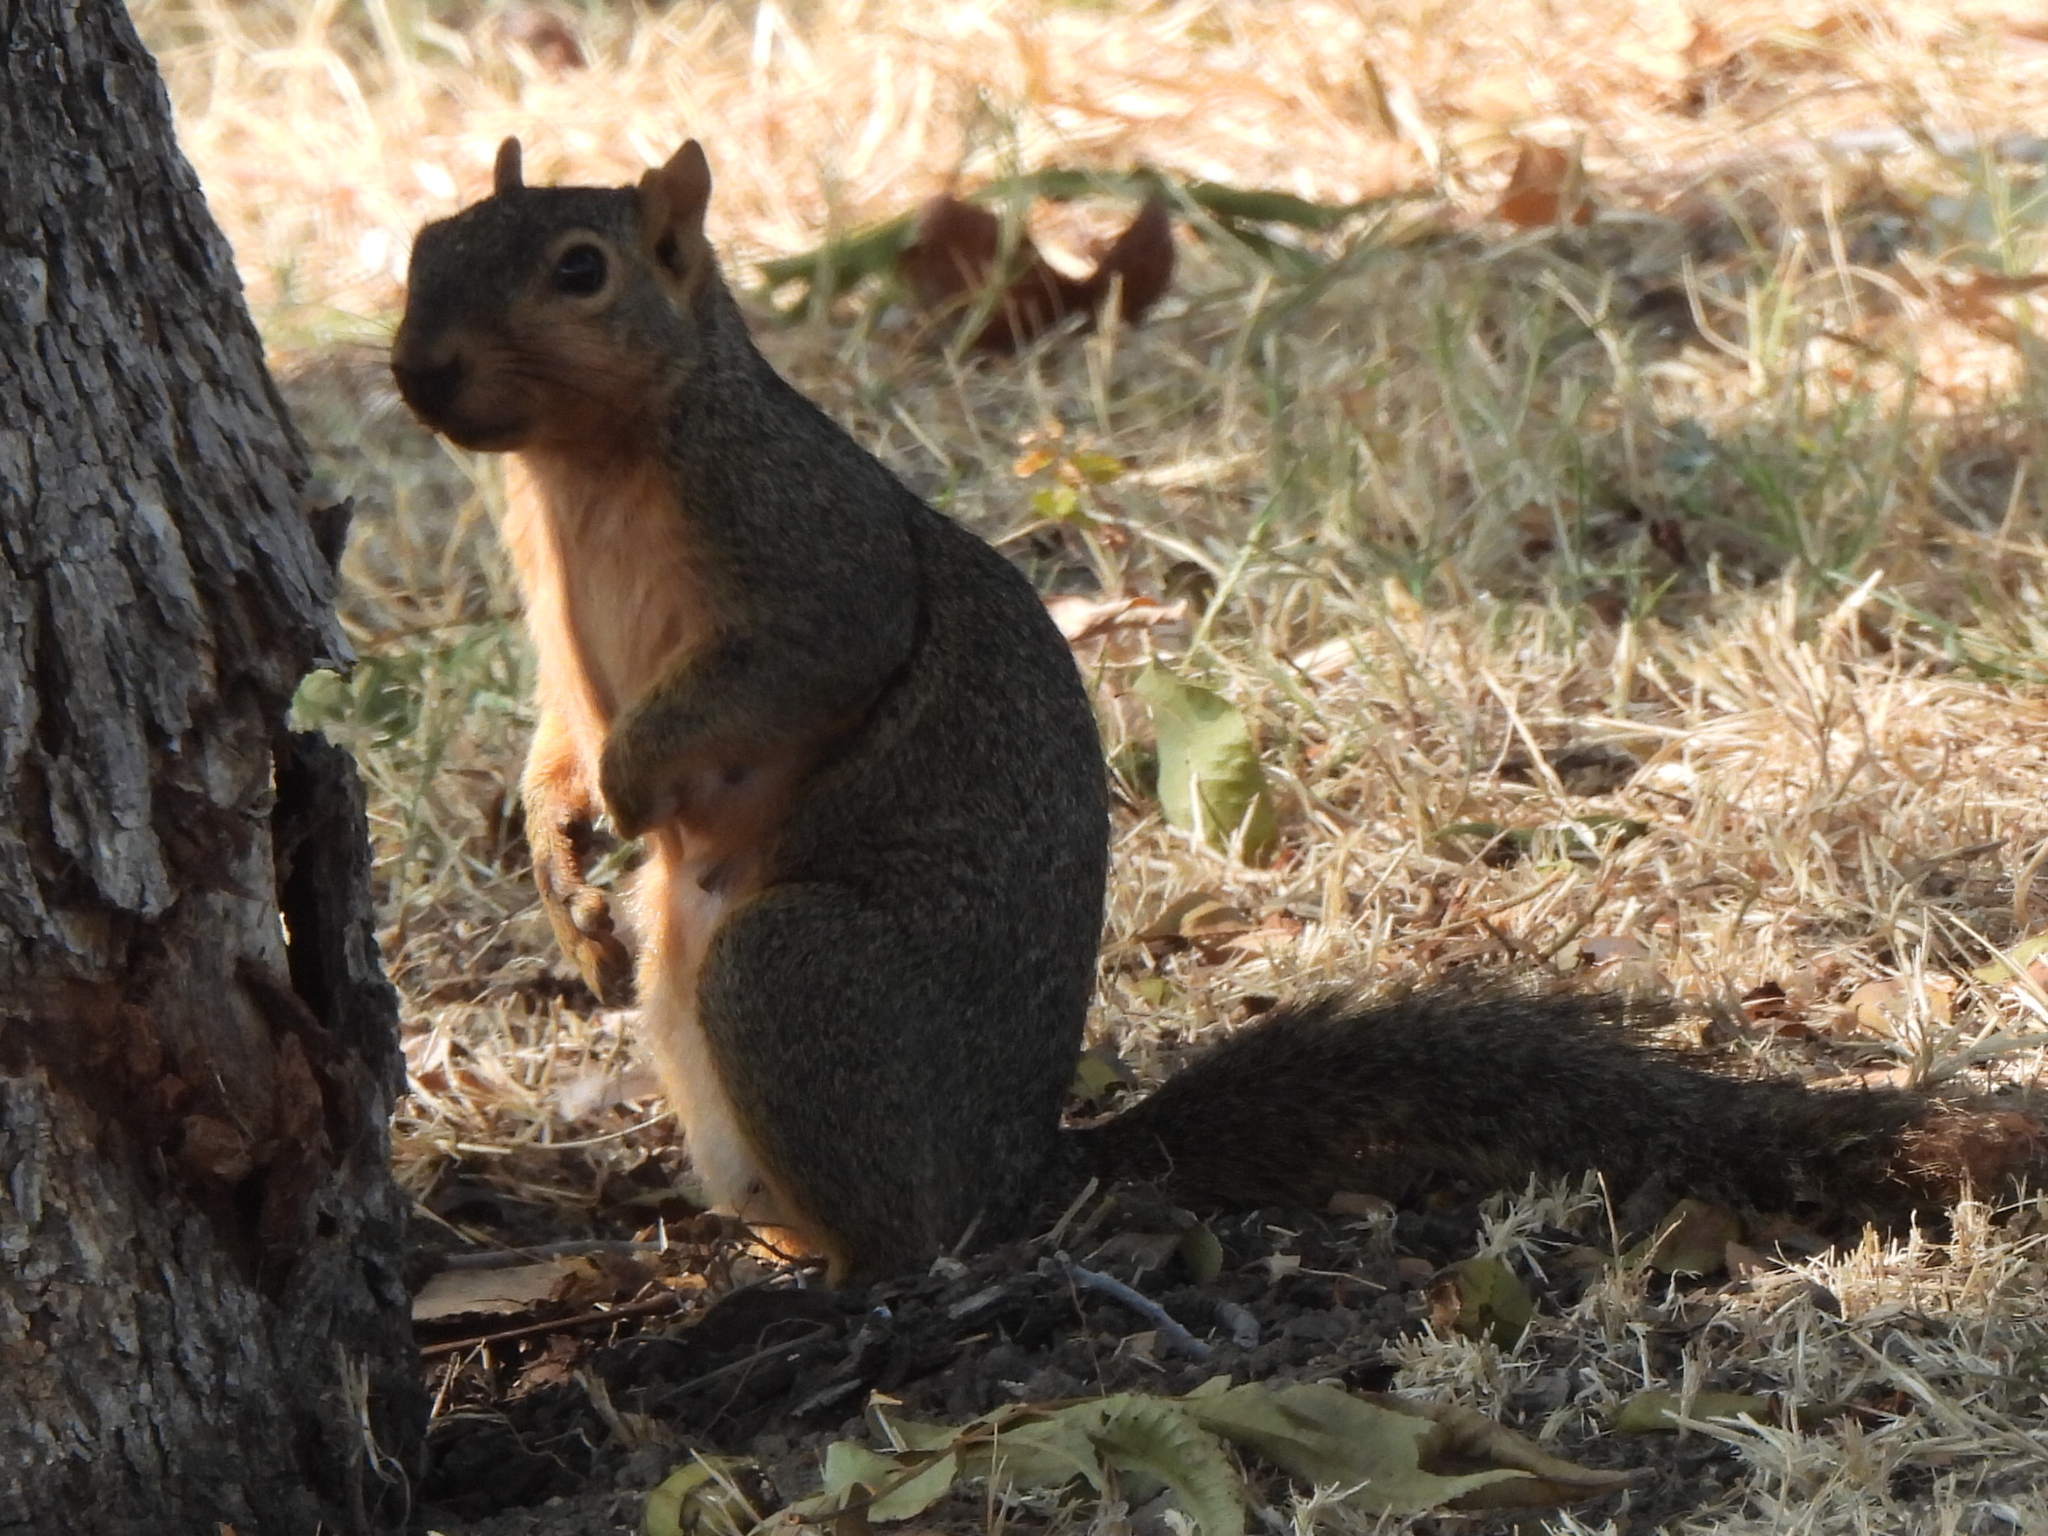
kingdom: Animalia
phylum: Chordata
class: Mammalia
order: Rodentia
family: Sciuridae
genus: Sciurus
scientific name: Sciurus niger
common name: Fox squirrel
